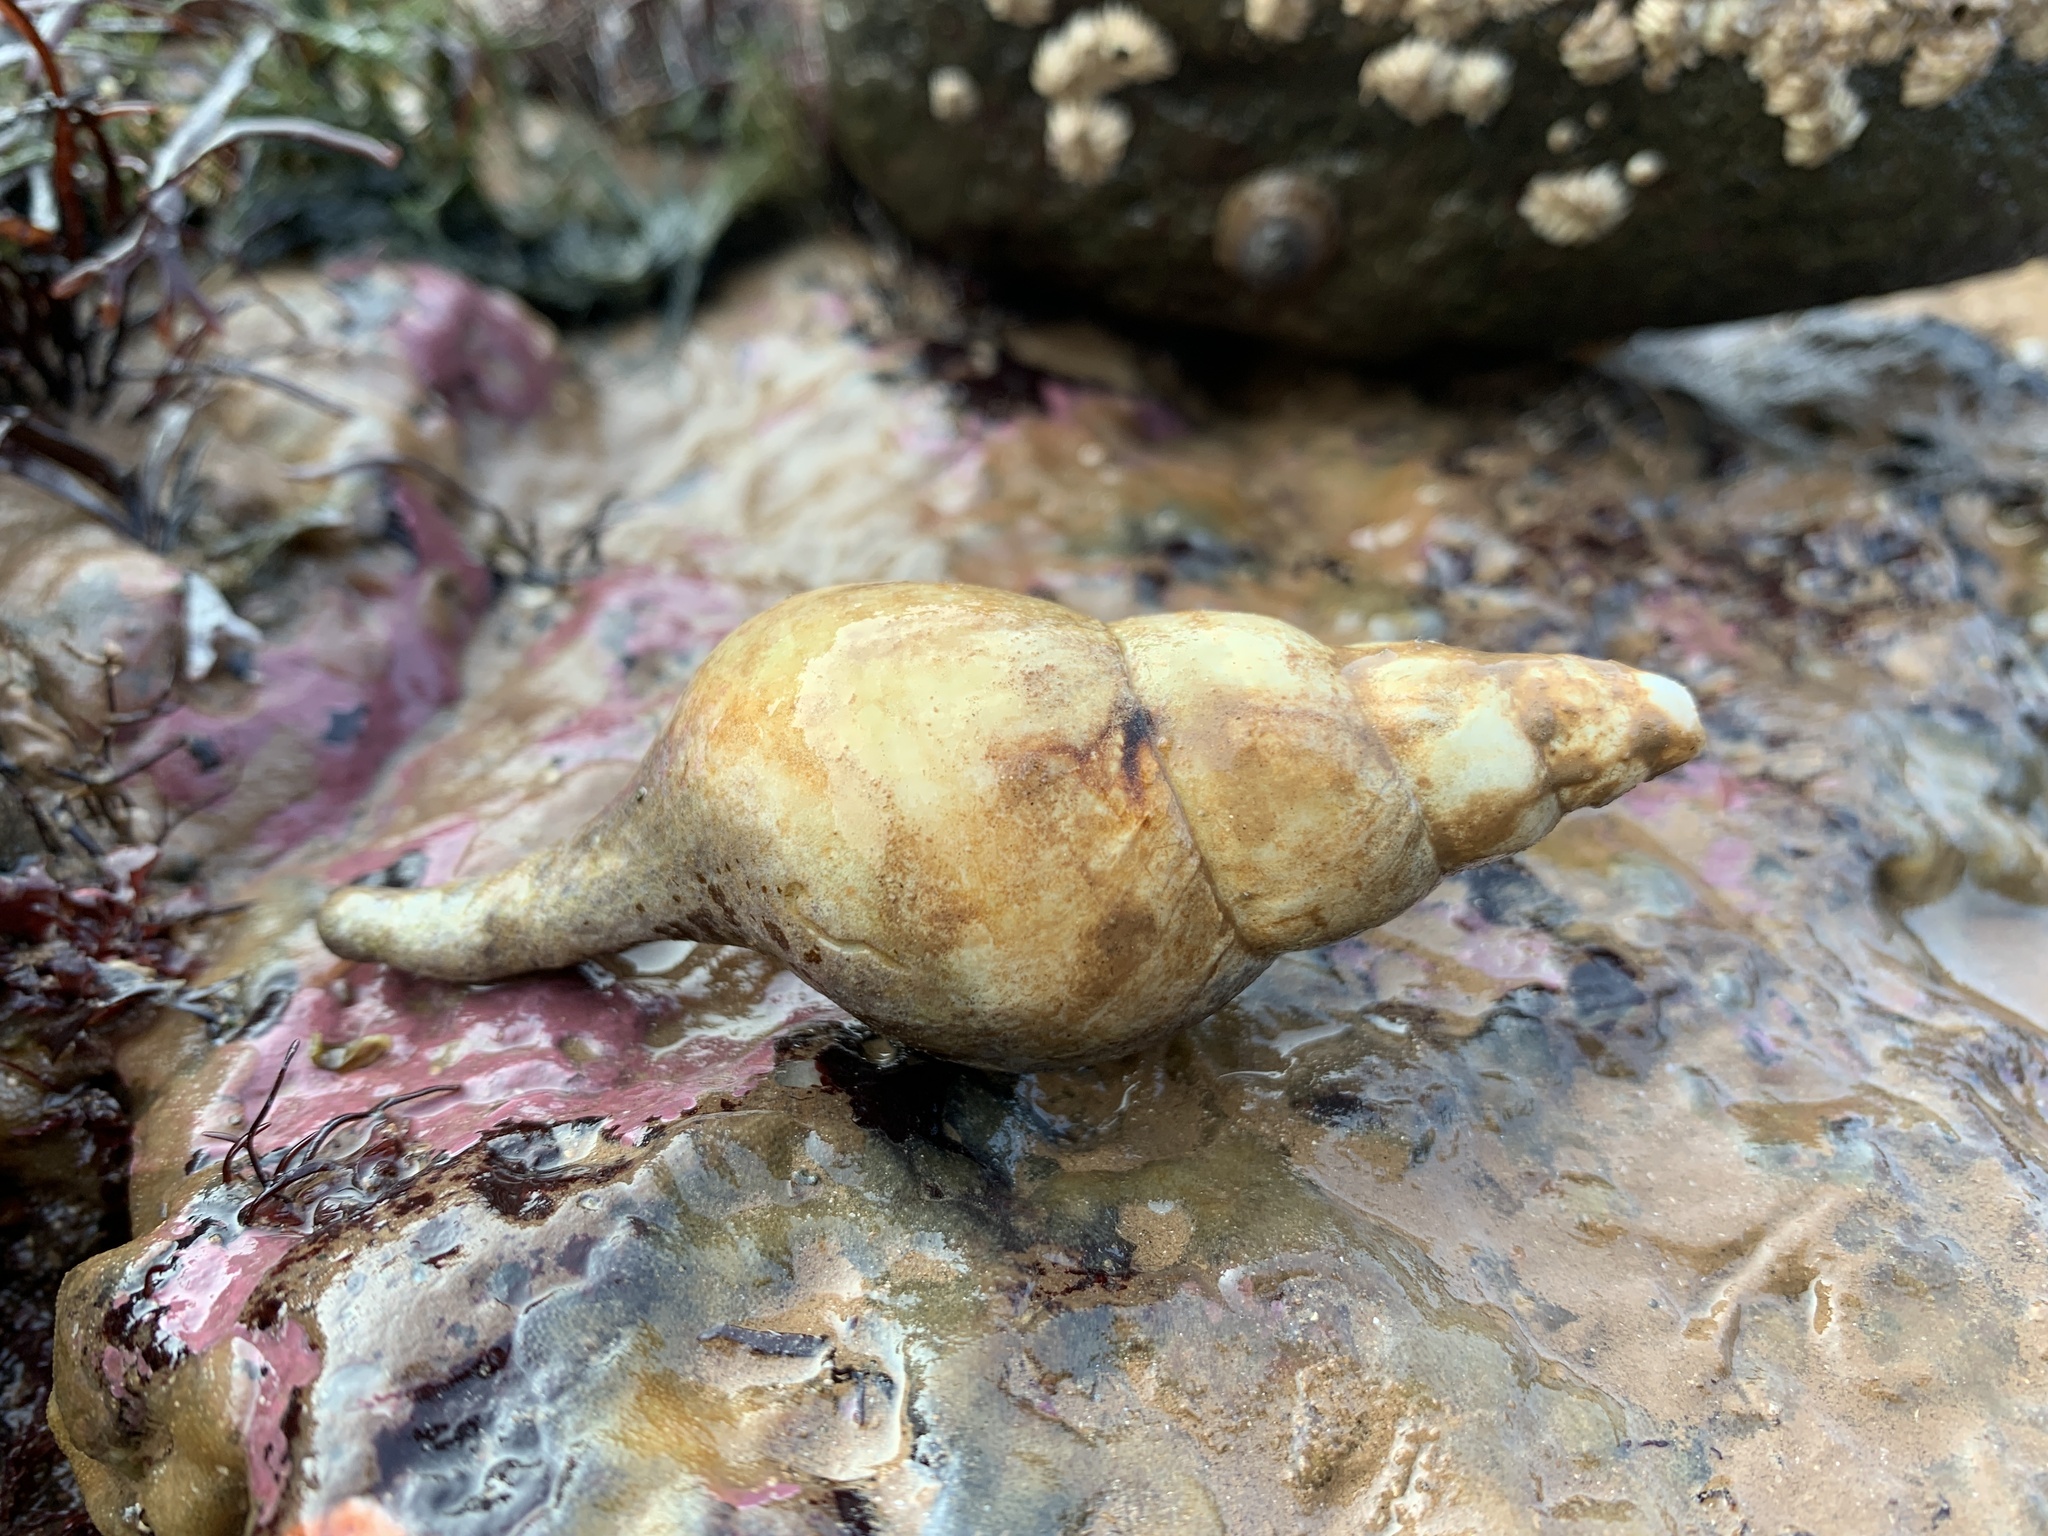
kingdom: Animalia
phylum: Mollusca
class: Gastropoda
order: Neogastropoda
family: Colidae
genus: Colus
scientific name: Colus stimpsoni
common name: Stimpson's colus
